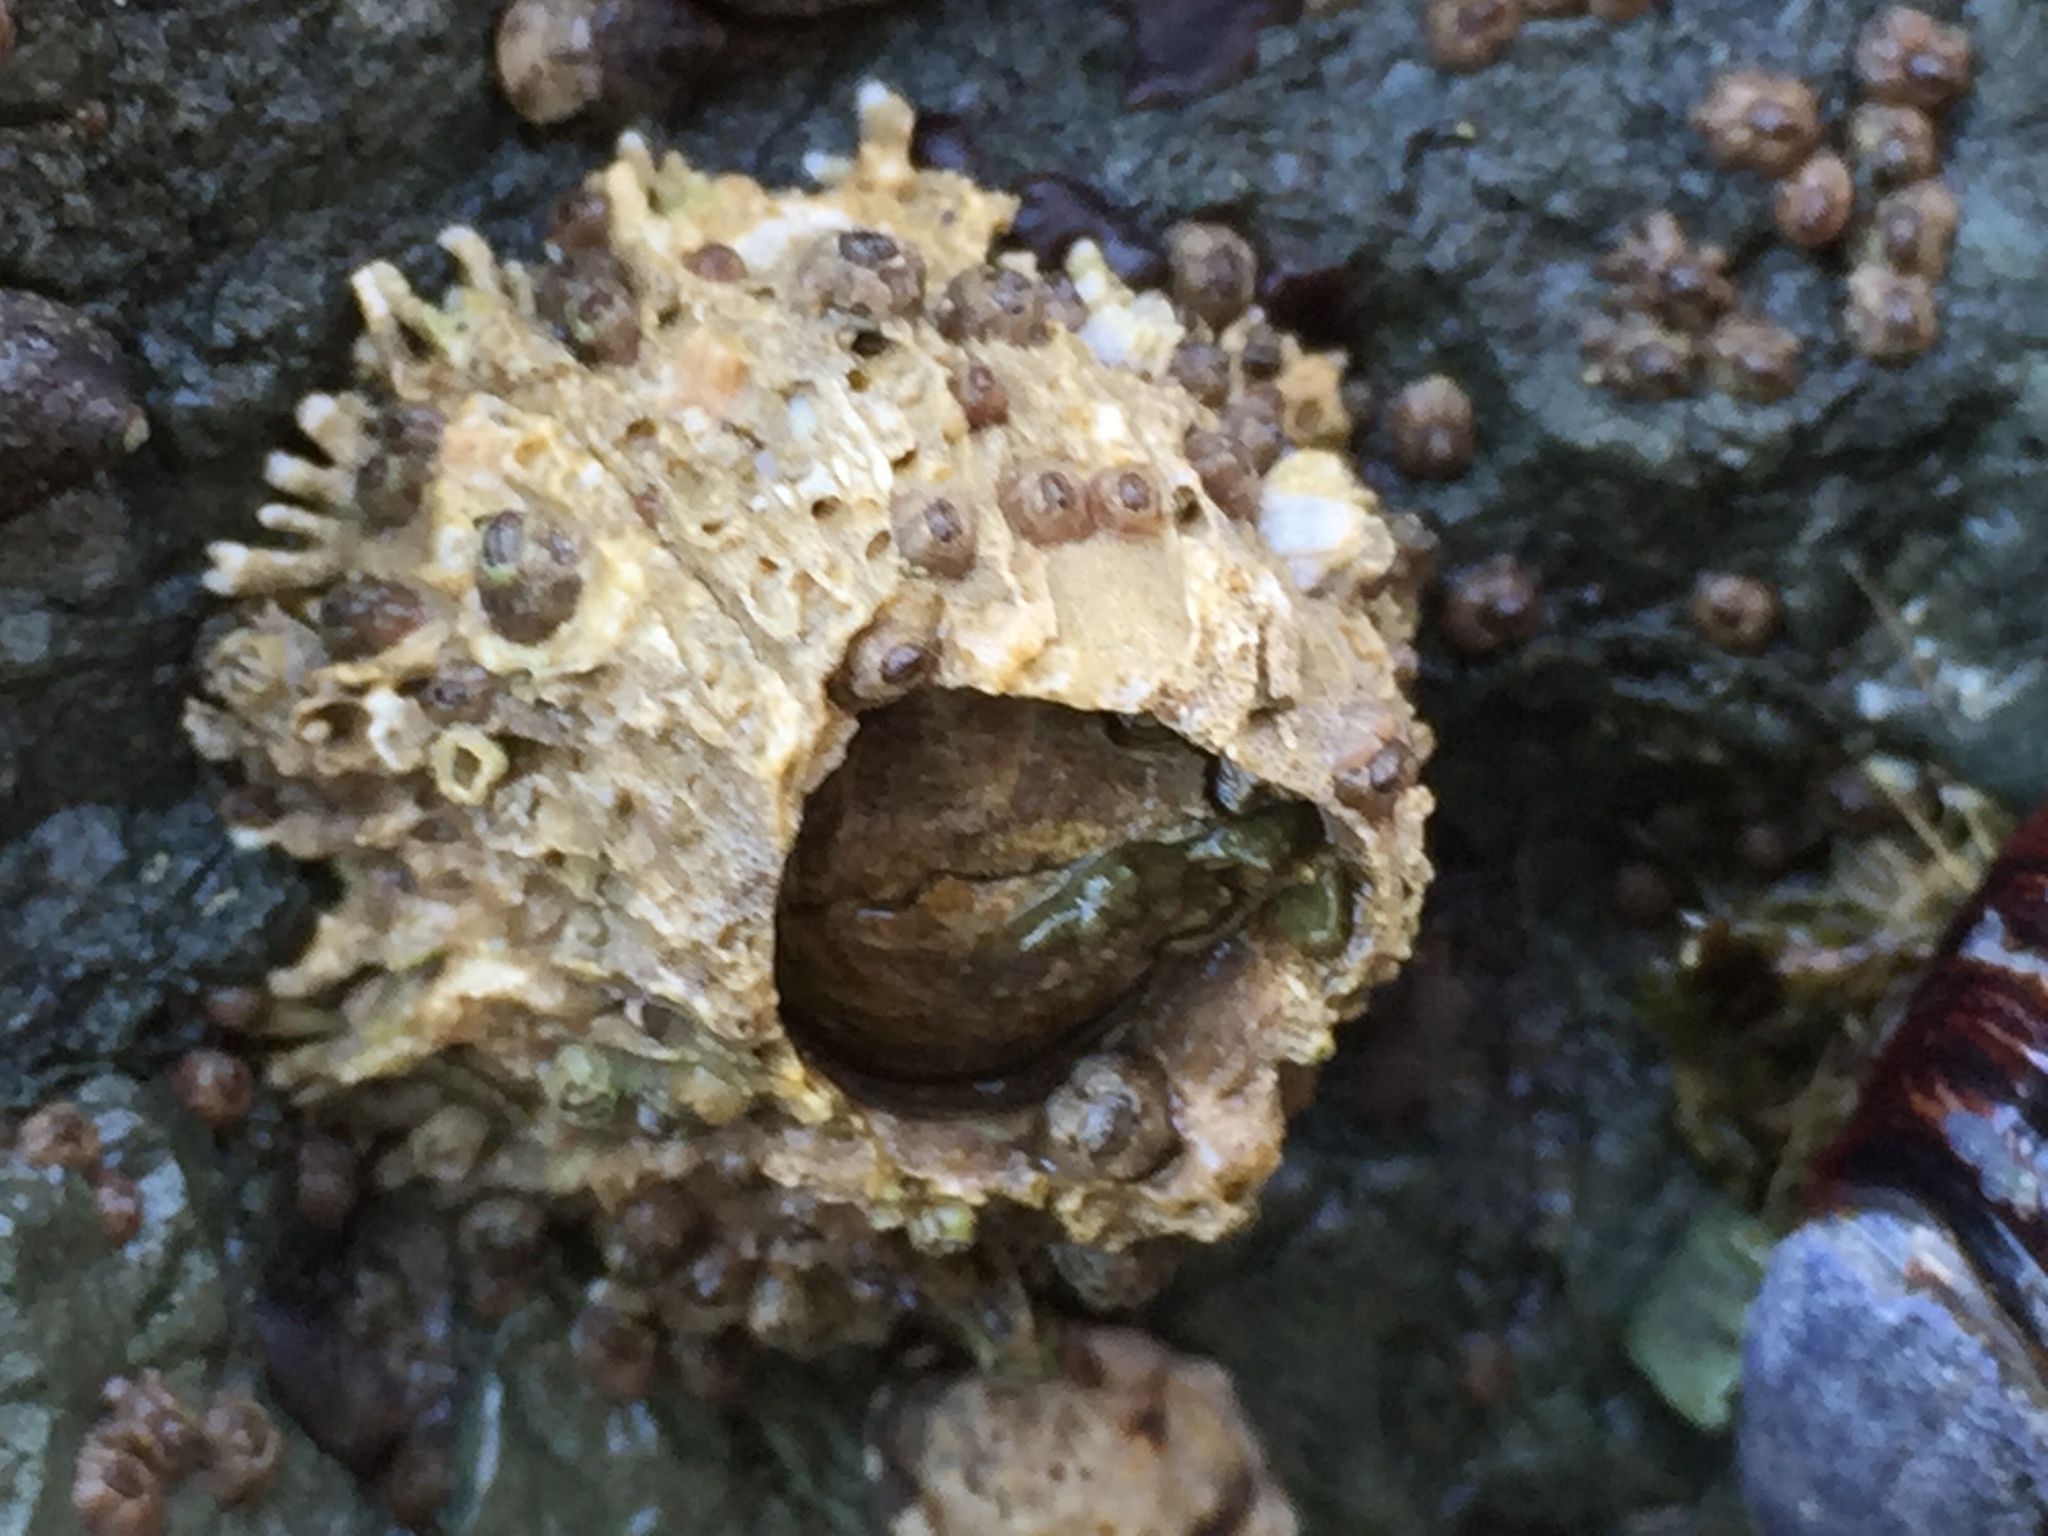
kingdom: Animalia
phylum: Arthropoda
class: Maxillopoda
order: Sessilia
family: Archaeobalanidae
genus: Semibalanus
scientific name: Semibalanus cariosus
